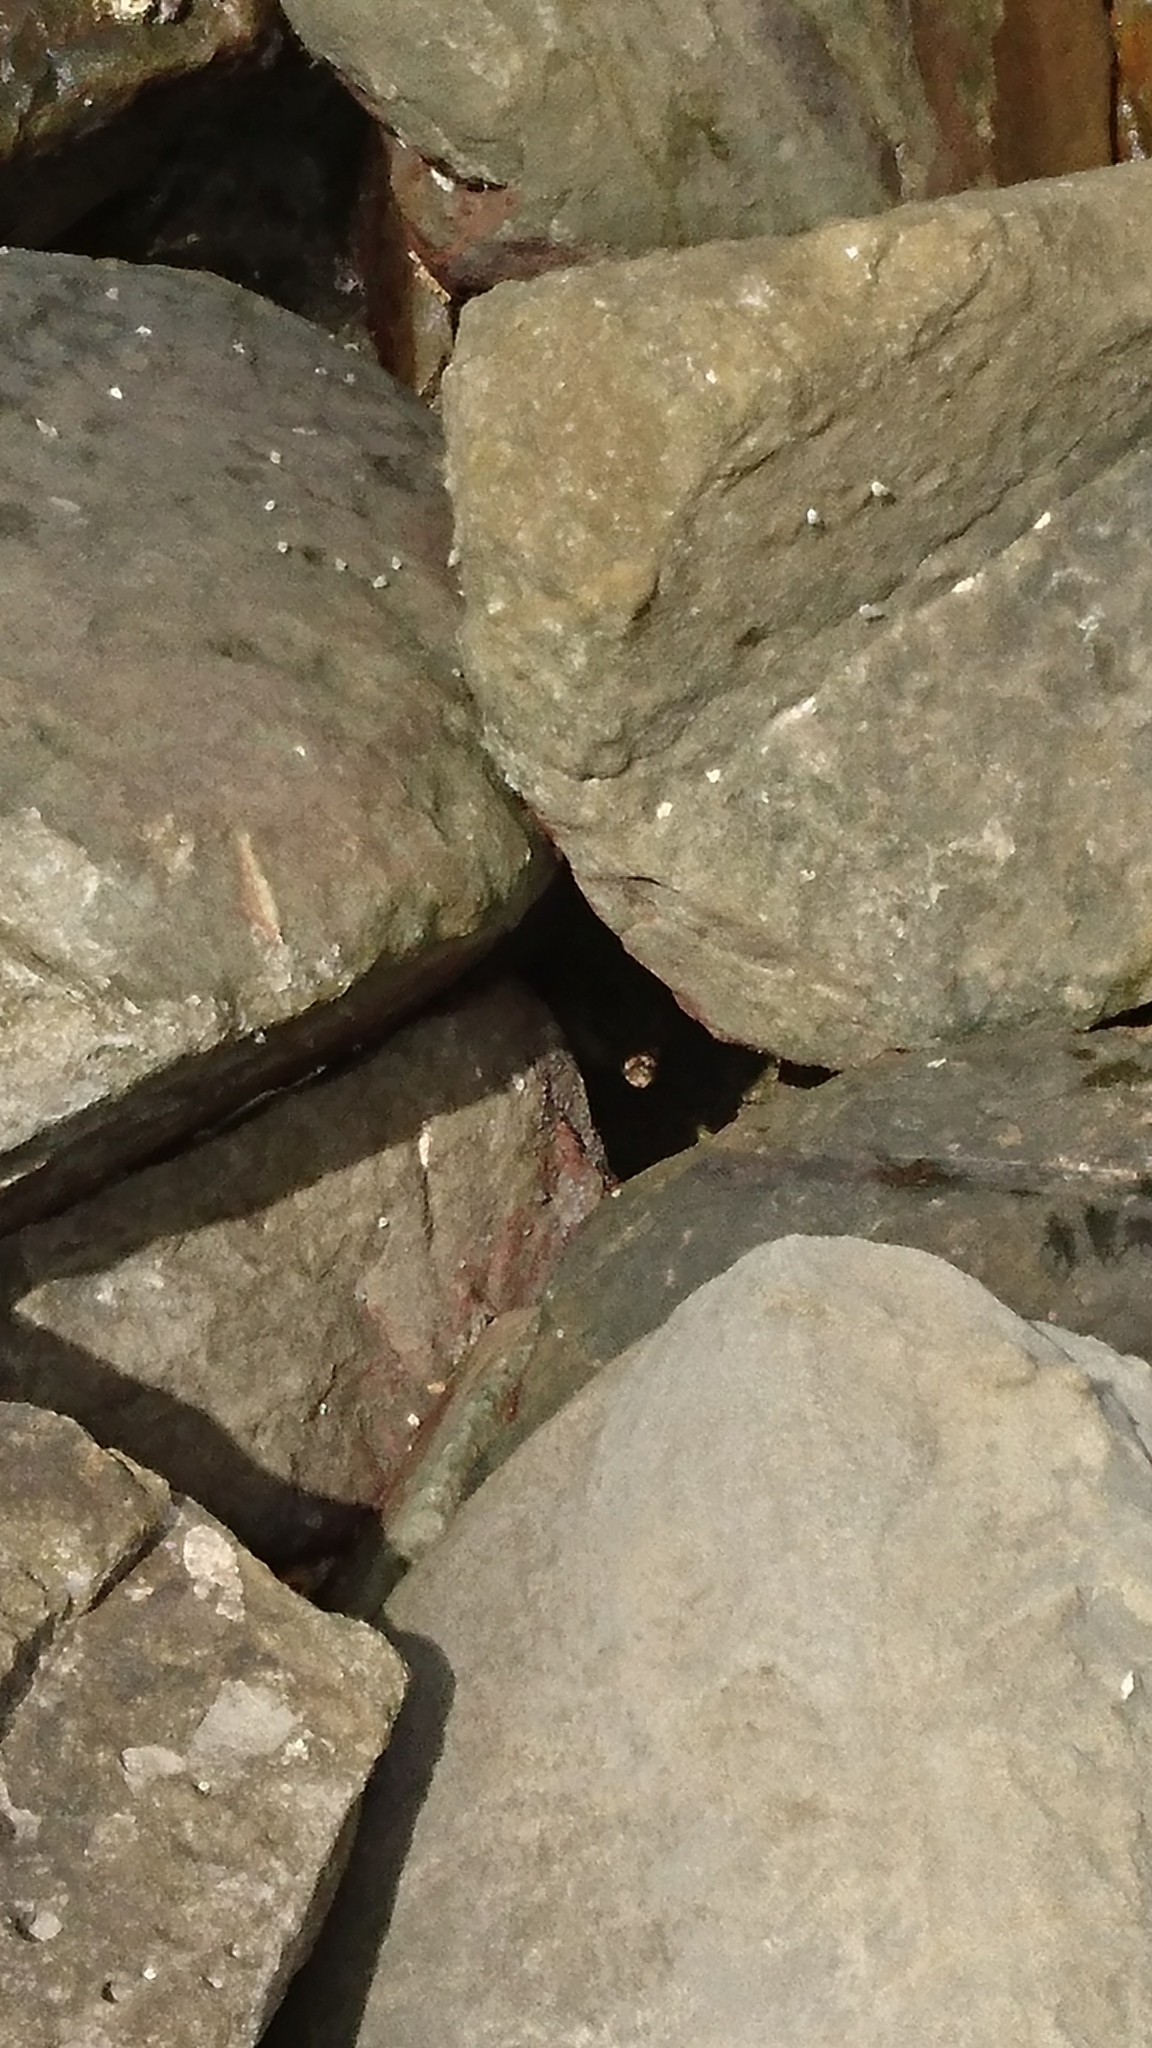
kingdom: Animalia
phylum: Chordata
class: Squamata
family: Varanidae
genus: Varanus
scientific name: Varanus salvator
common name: Common water monitor
